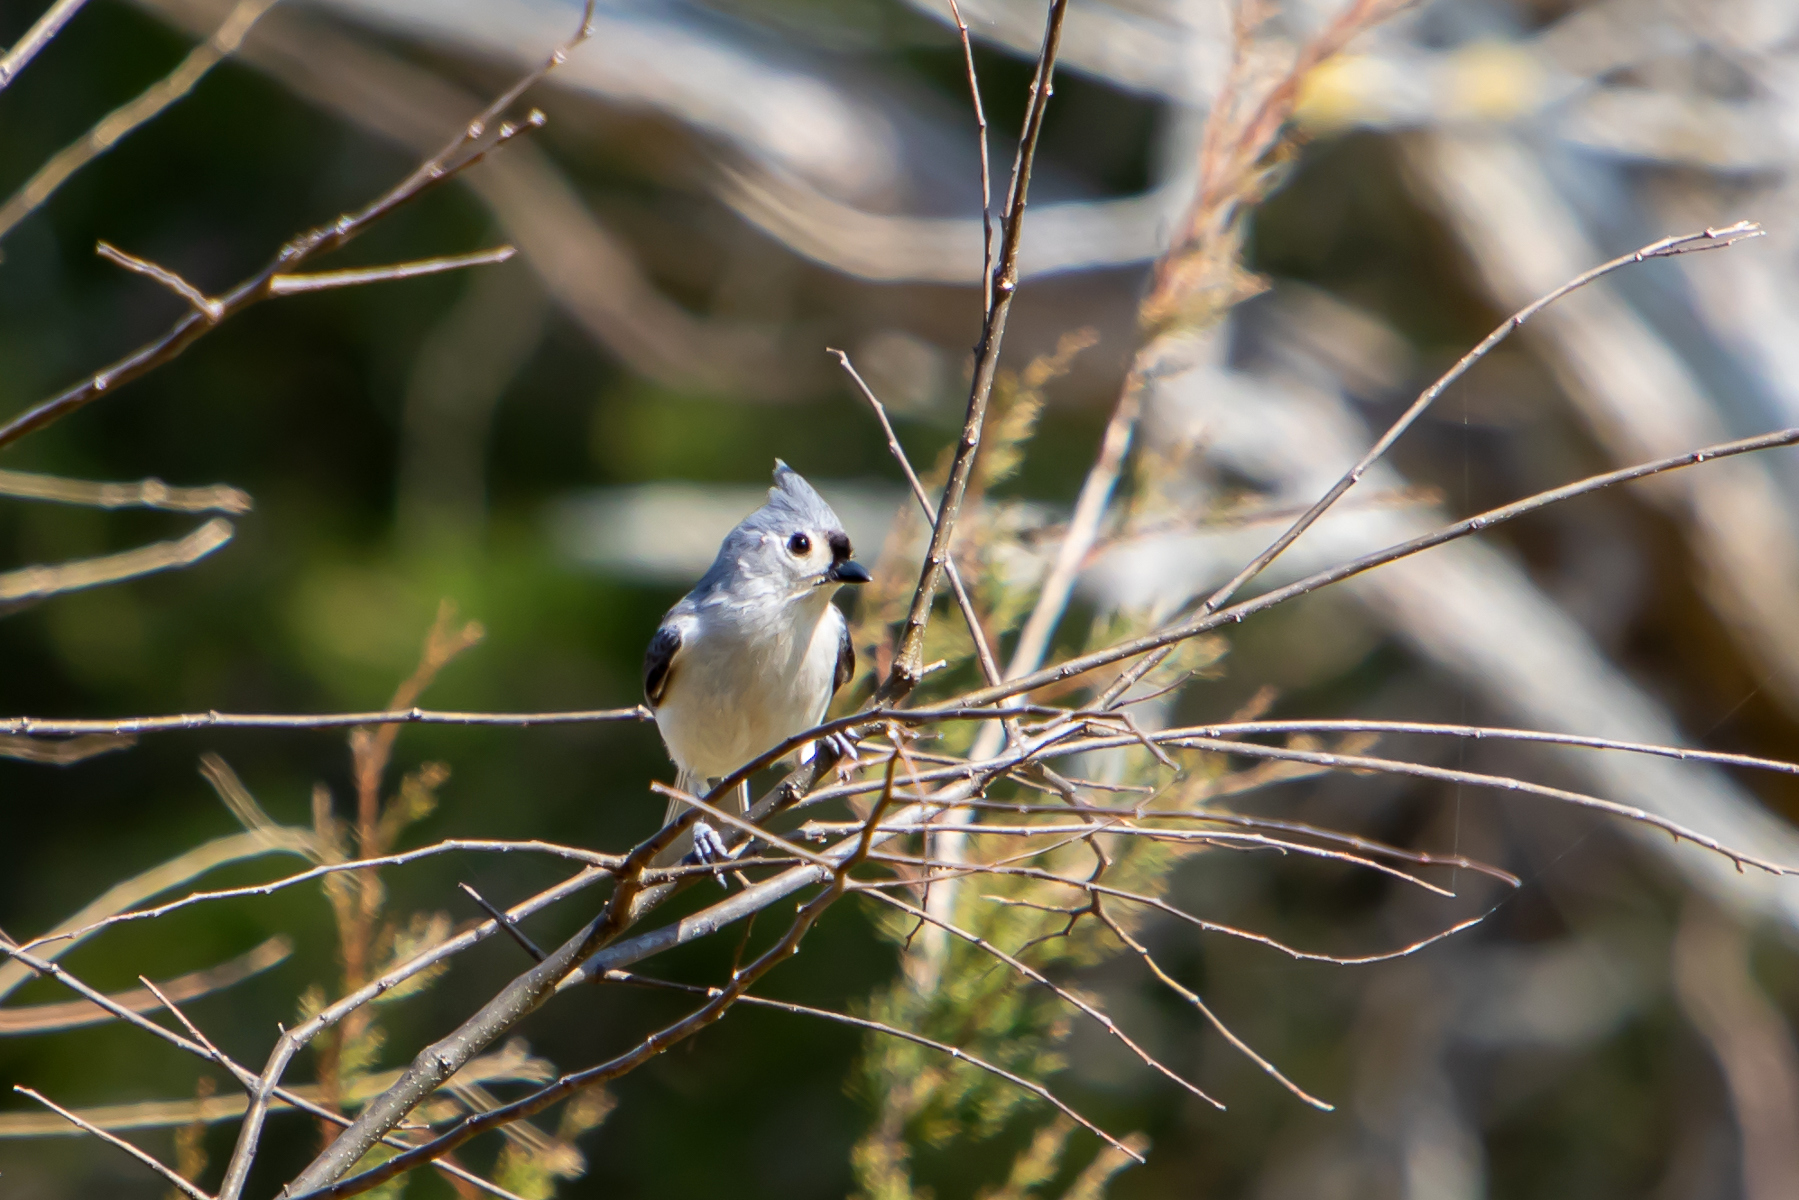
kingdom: Animalia
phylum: Chordata
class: Aves
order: Passeriformes
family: Paridae
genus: Baeolophus
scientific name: Baeolophus bicolor
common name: Tufted titmouse
